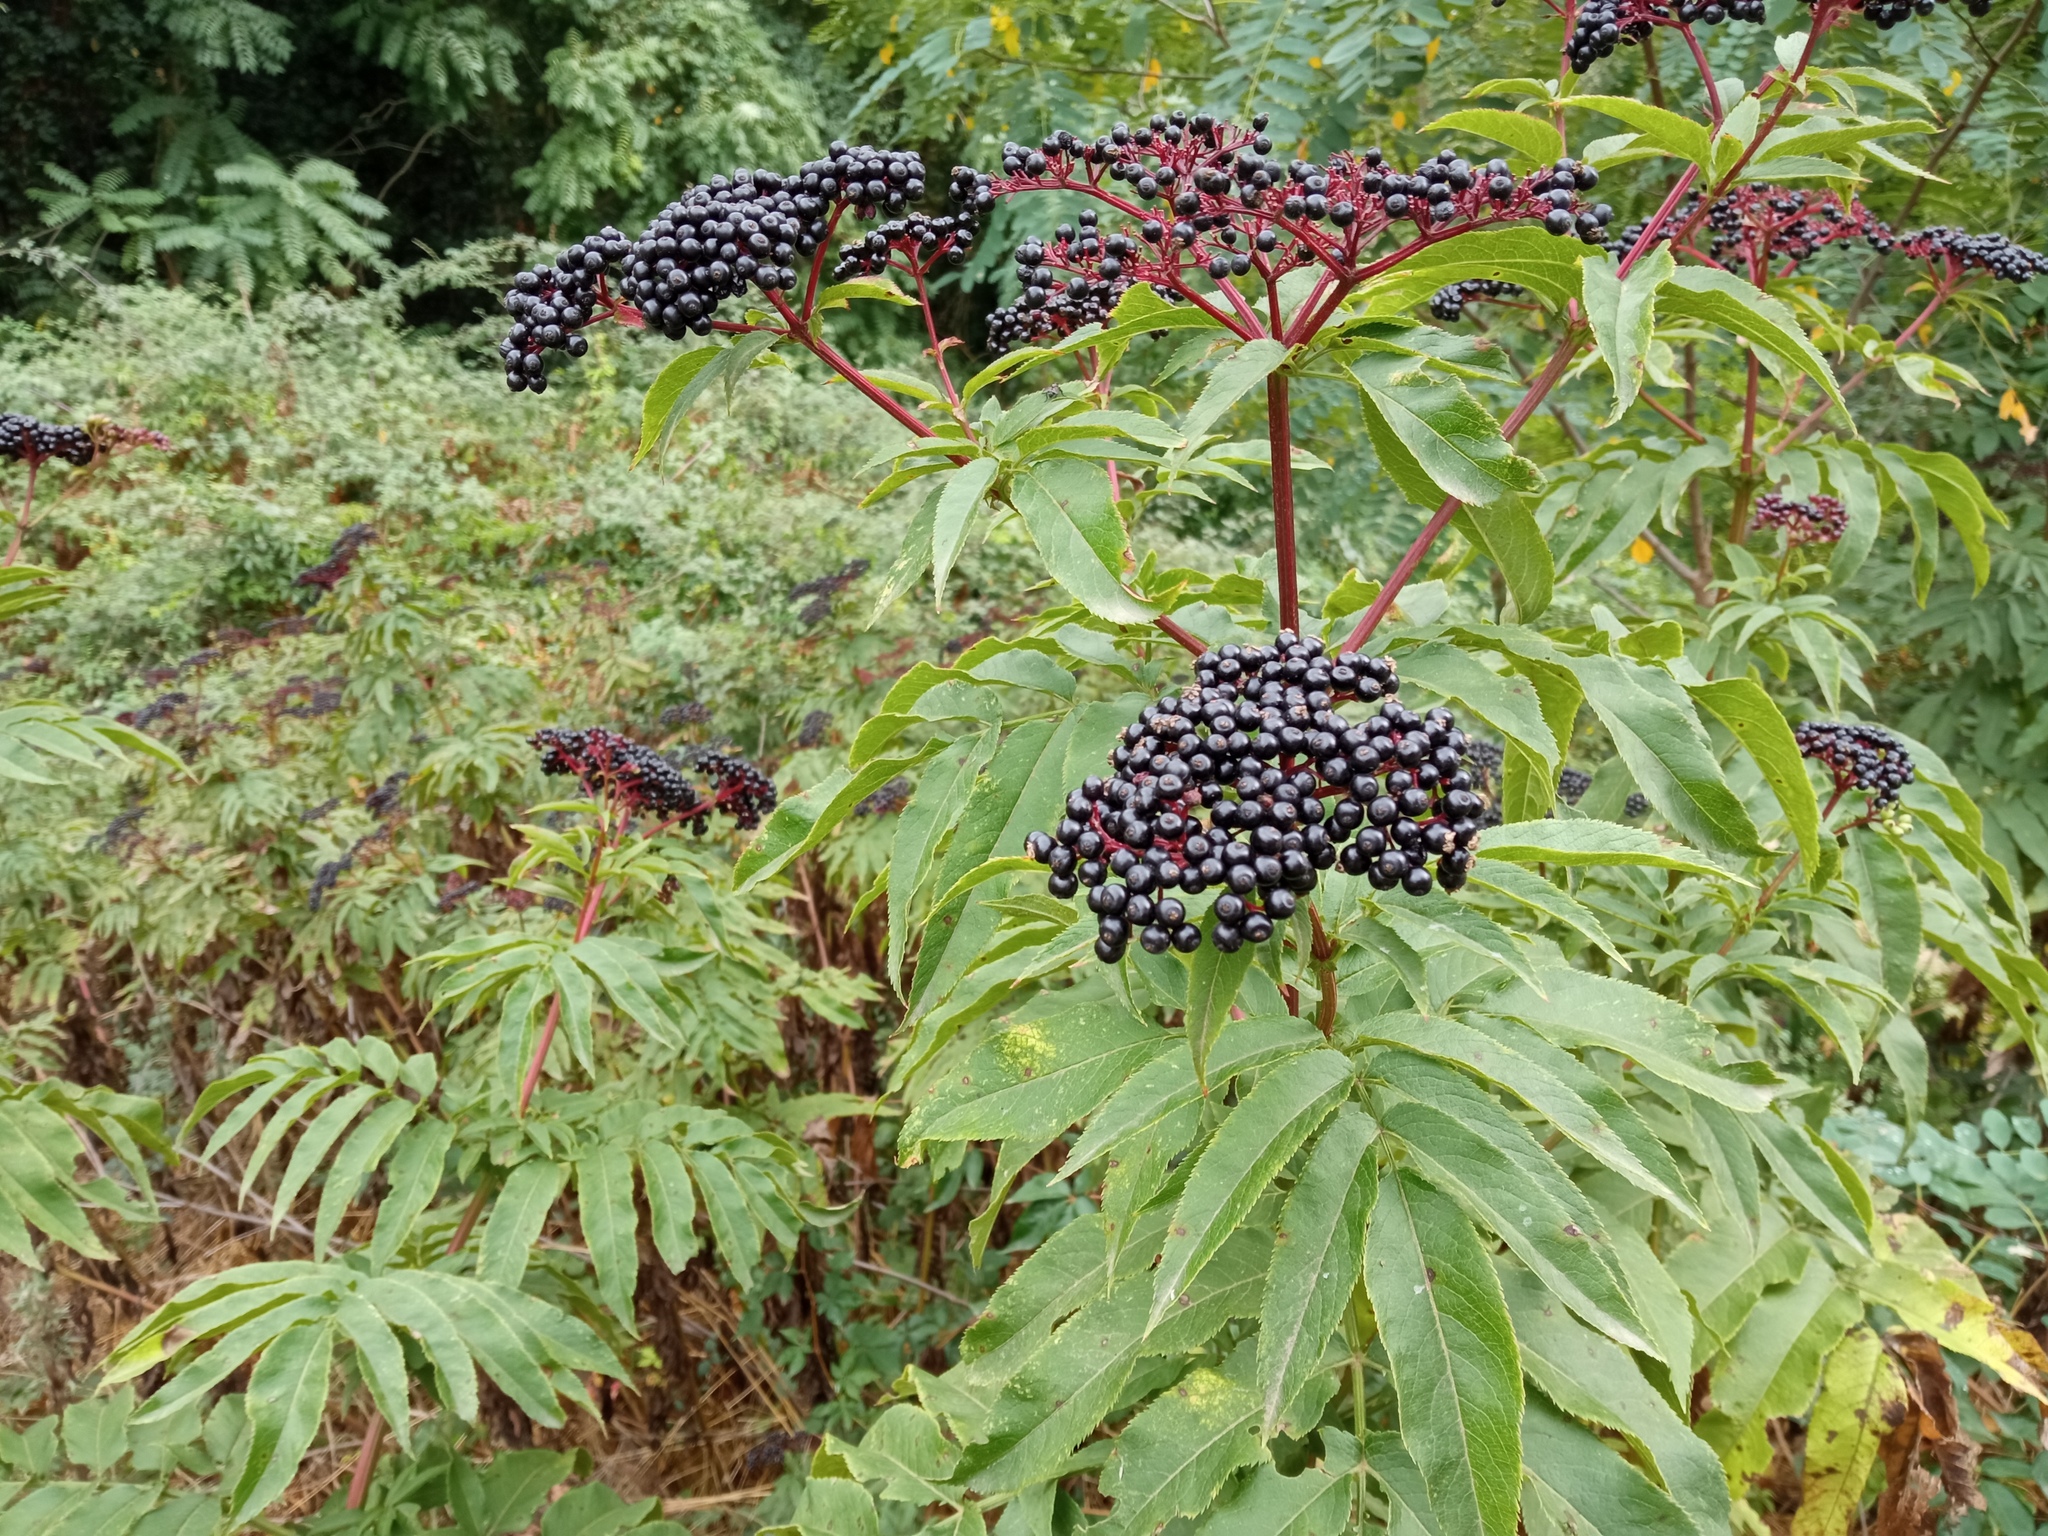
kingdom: Plantae
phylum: Tracheophyta
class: Magnoliopsida
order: Dipsacales
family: Viburnaceae
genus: Sambucus
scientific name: Sambucus ebulus
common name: Dwarf elder
